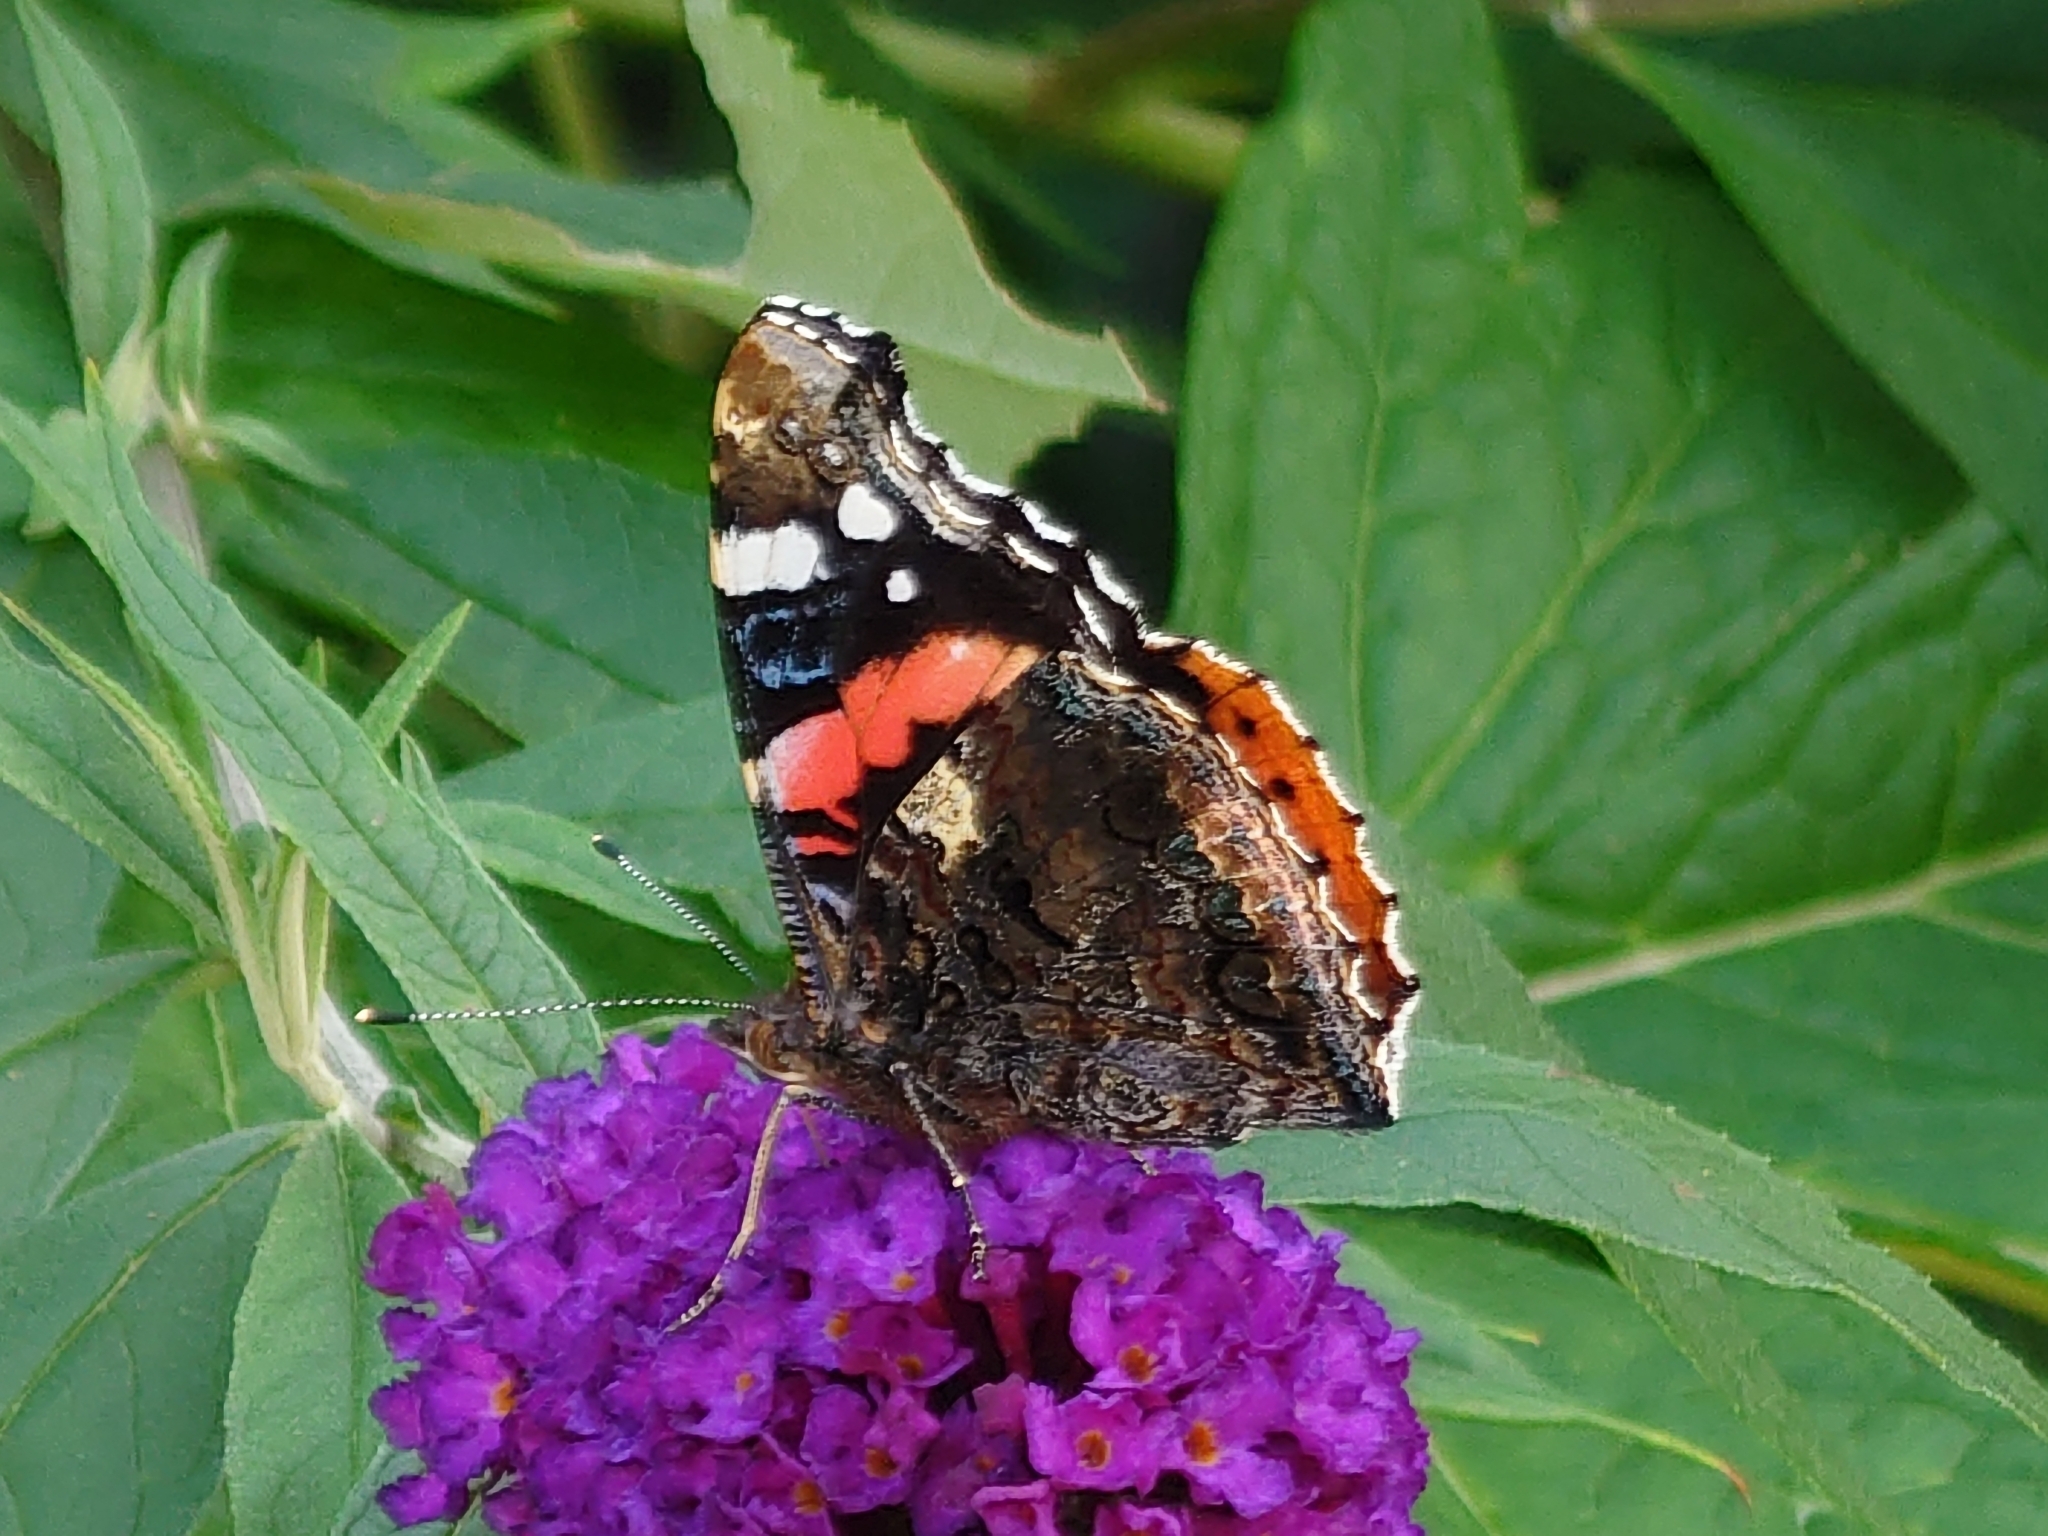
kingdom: Animalia
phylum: Arthropoda
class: Insecta
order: Lepidoptera
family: Nymphalidae
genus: Vanessa
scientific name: Vanessa atalanta
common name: Red admiral
